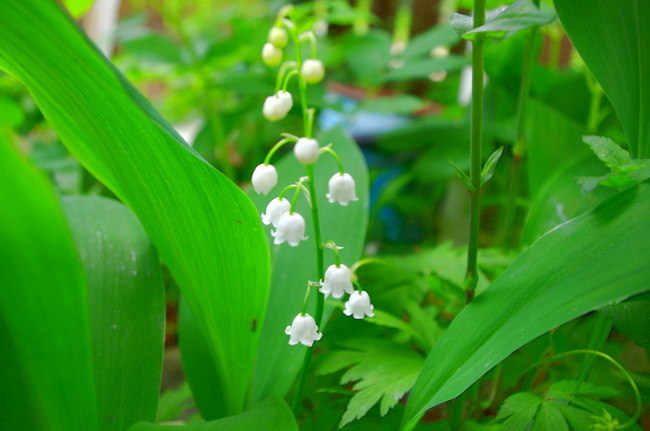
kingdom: Plantae
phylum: Tracheophyta
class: Liliopsida
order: Asparagales
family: Asparagaceae
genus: Convallaria
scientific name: Convallaria majalis
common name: Lily-of-the-valley
